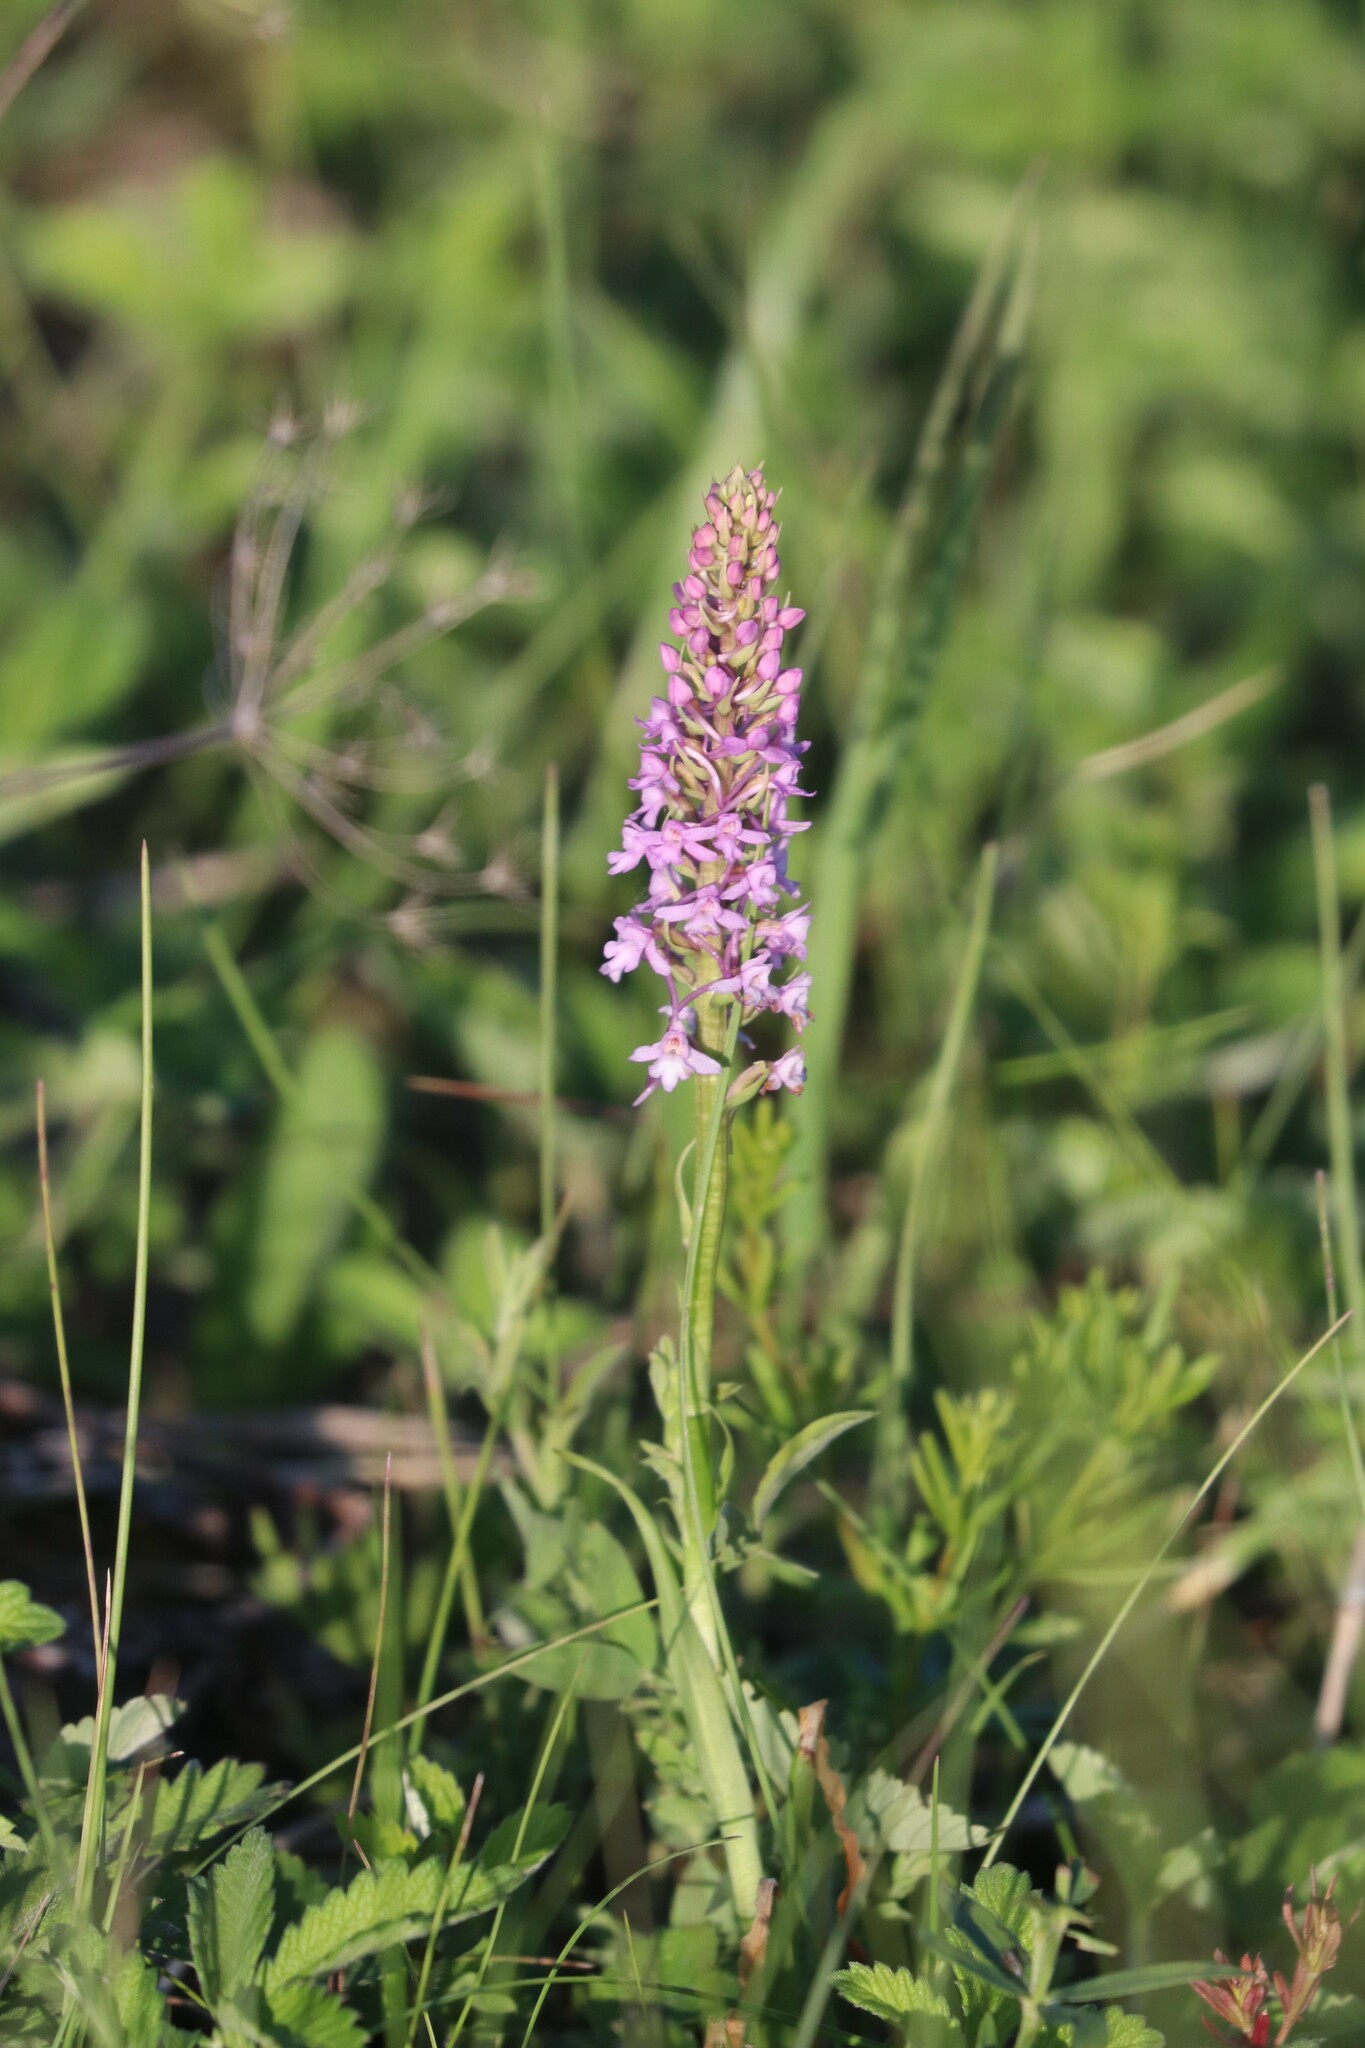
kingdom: Plantae
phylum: Tracheophyta
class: Liliopsida
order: Asparagales
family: Orchidaceae
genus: Gymnadenia
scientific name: Gymnadenia conopsea
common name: Fragrant orchid
